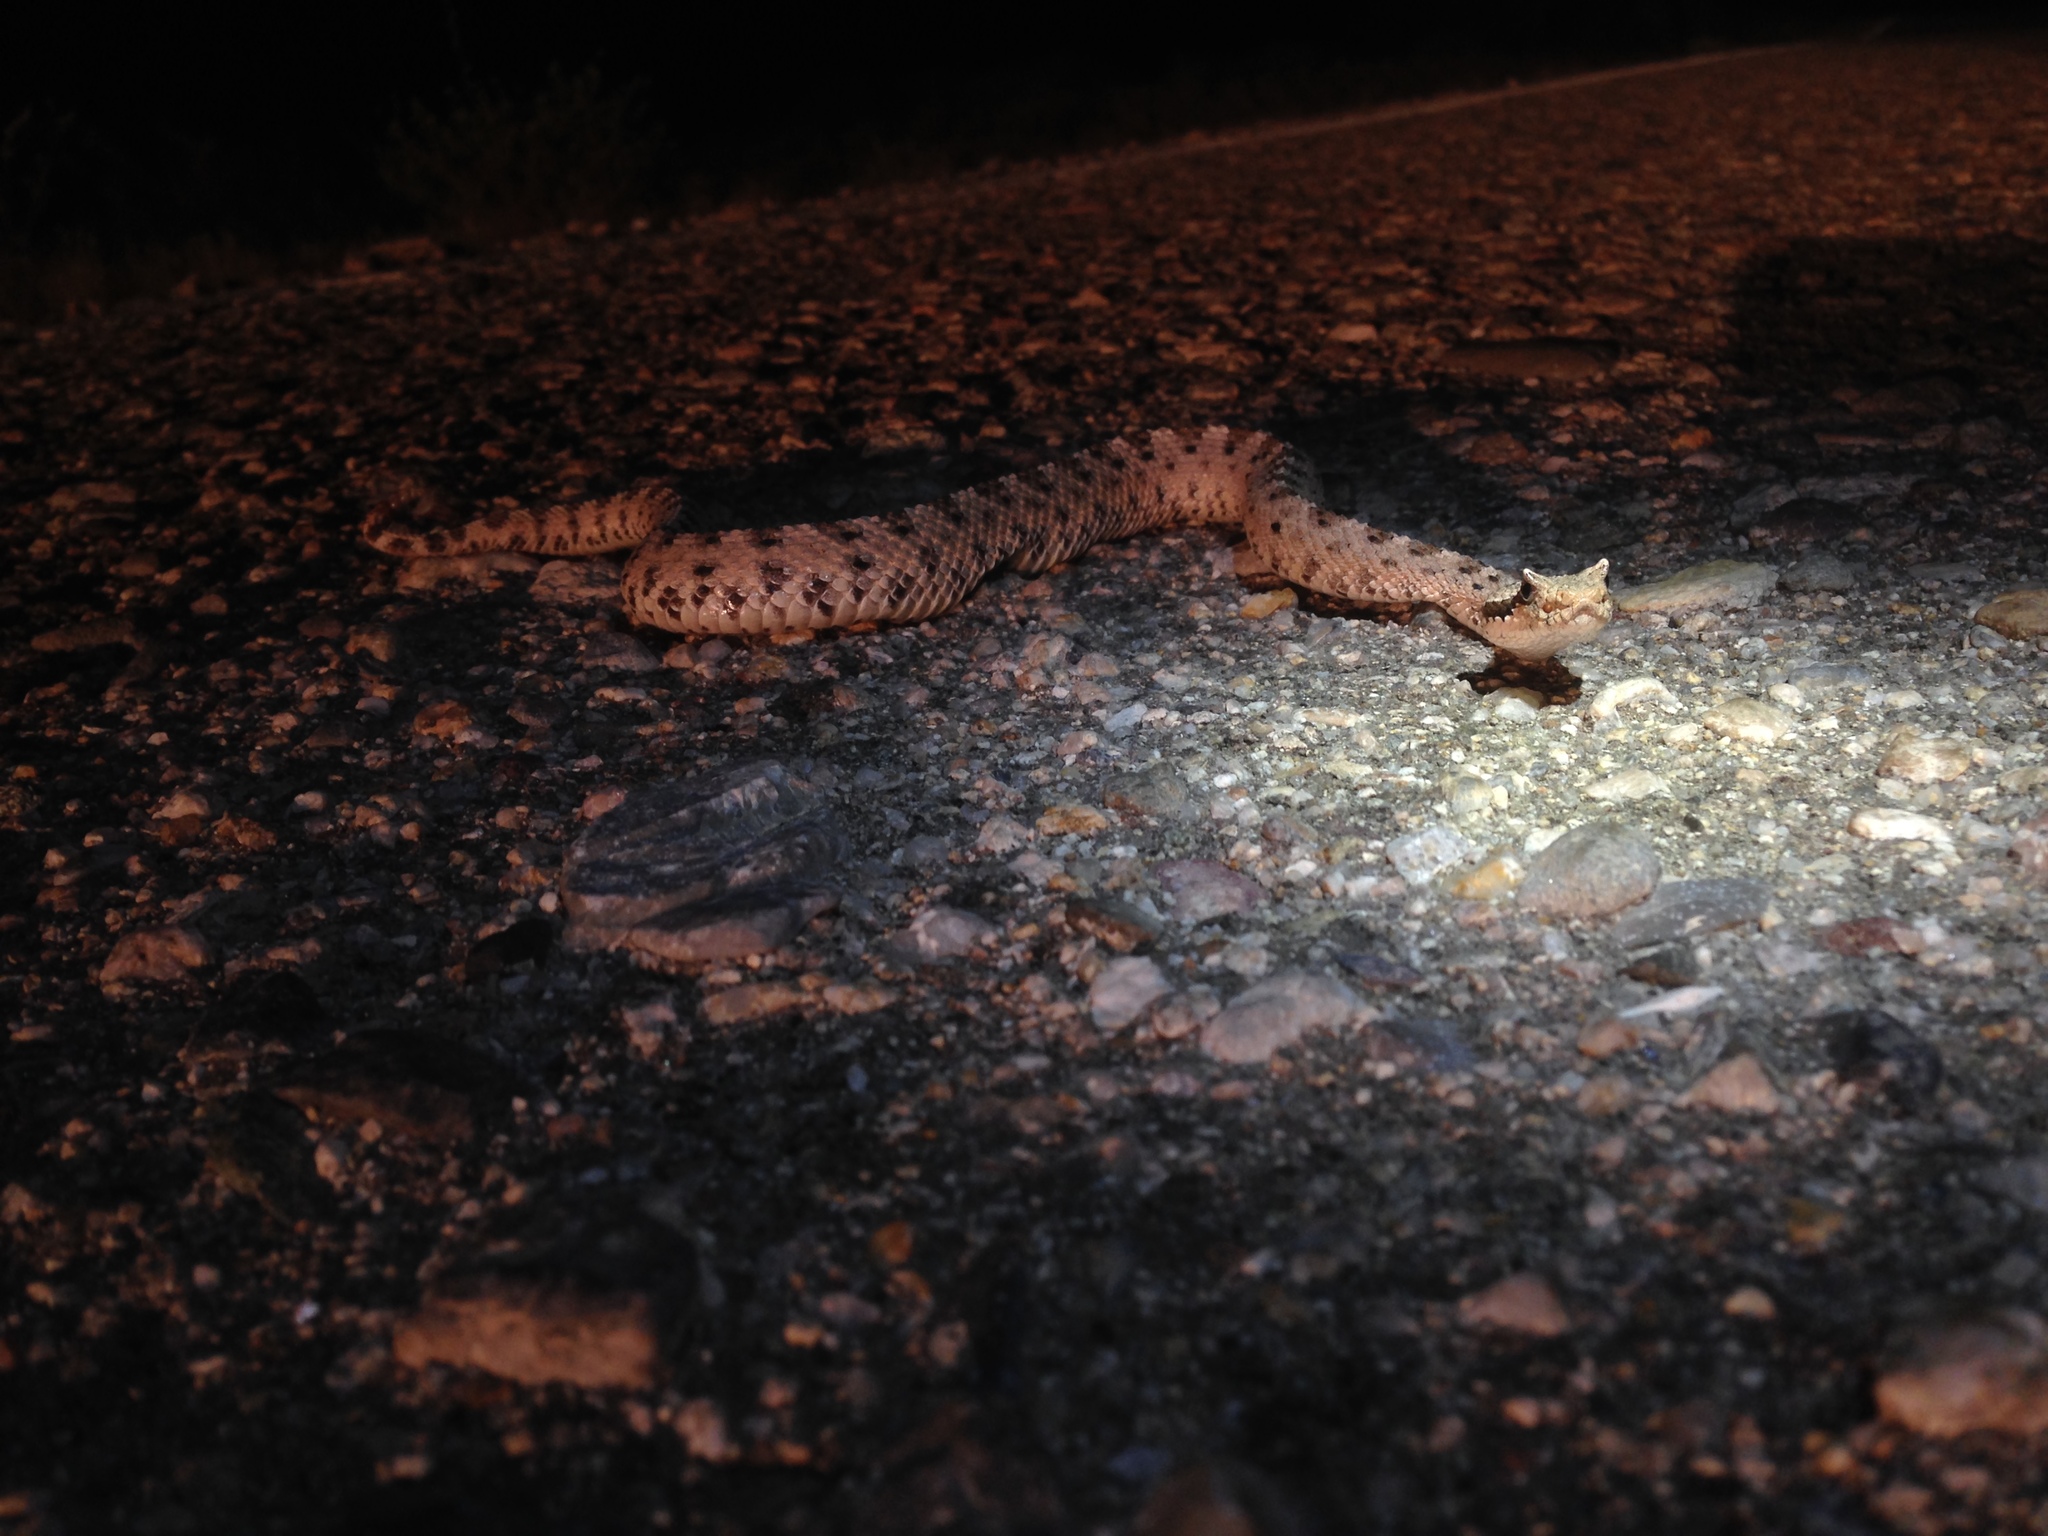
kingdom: Animalia
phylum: Chordata
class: Squamata
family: Viperidae
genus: Crotalus
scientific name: Crotalus cerastes
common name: Sidewinder
